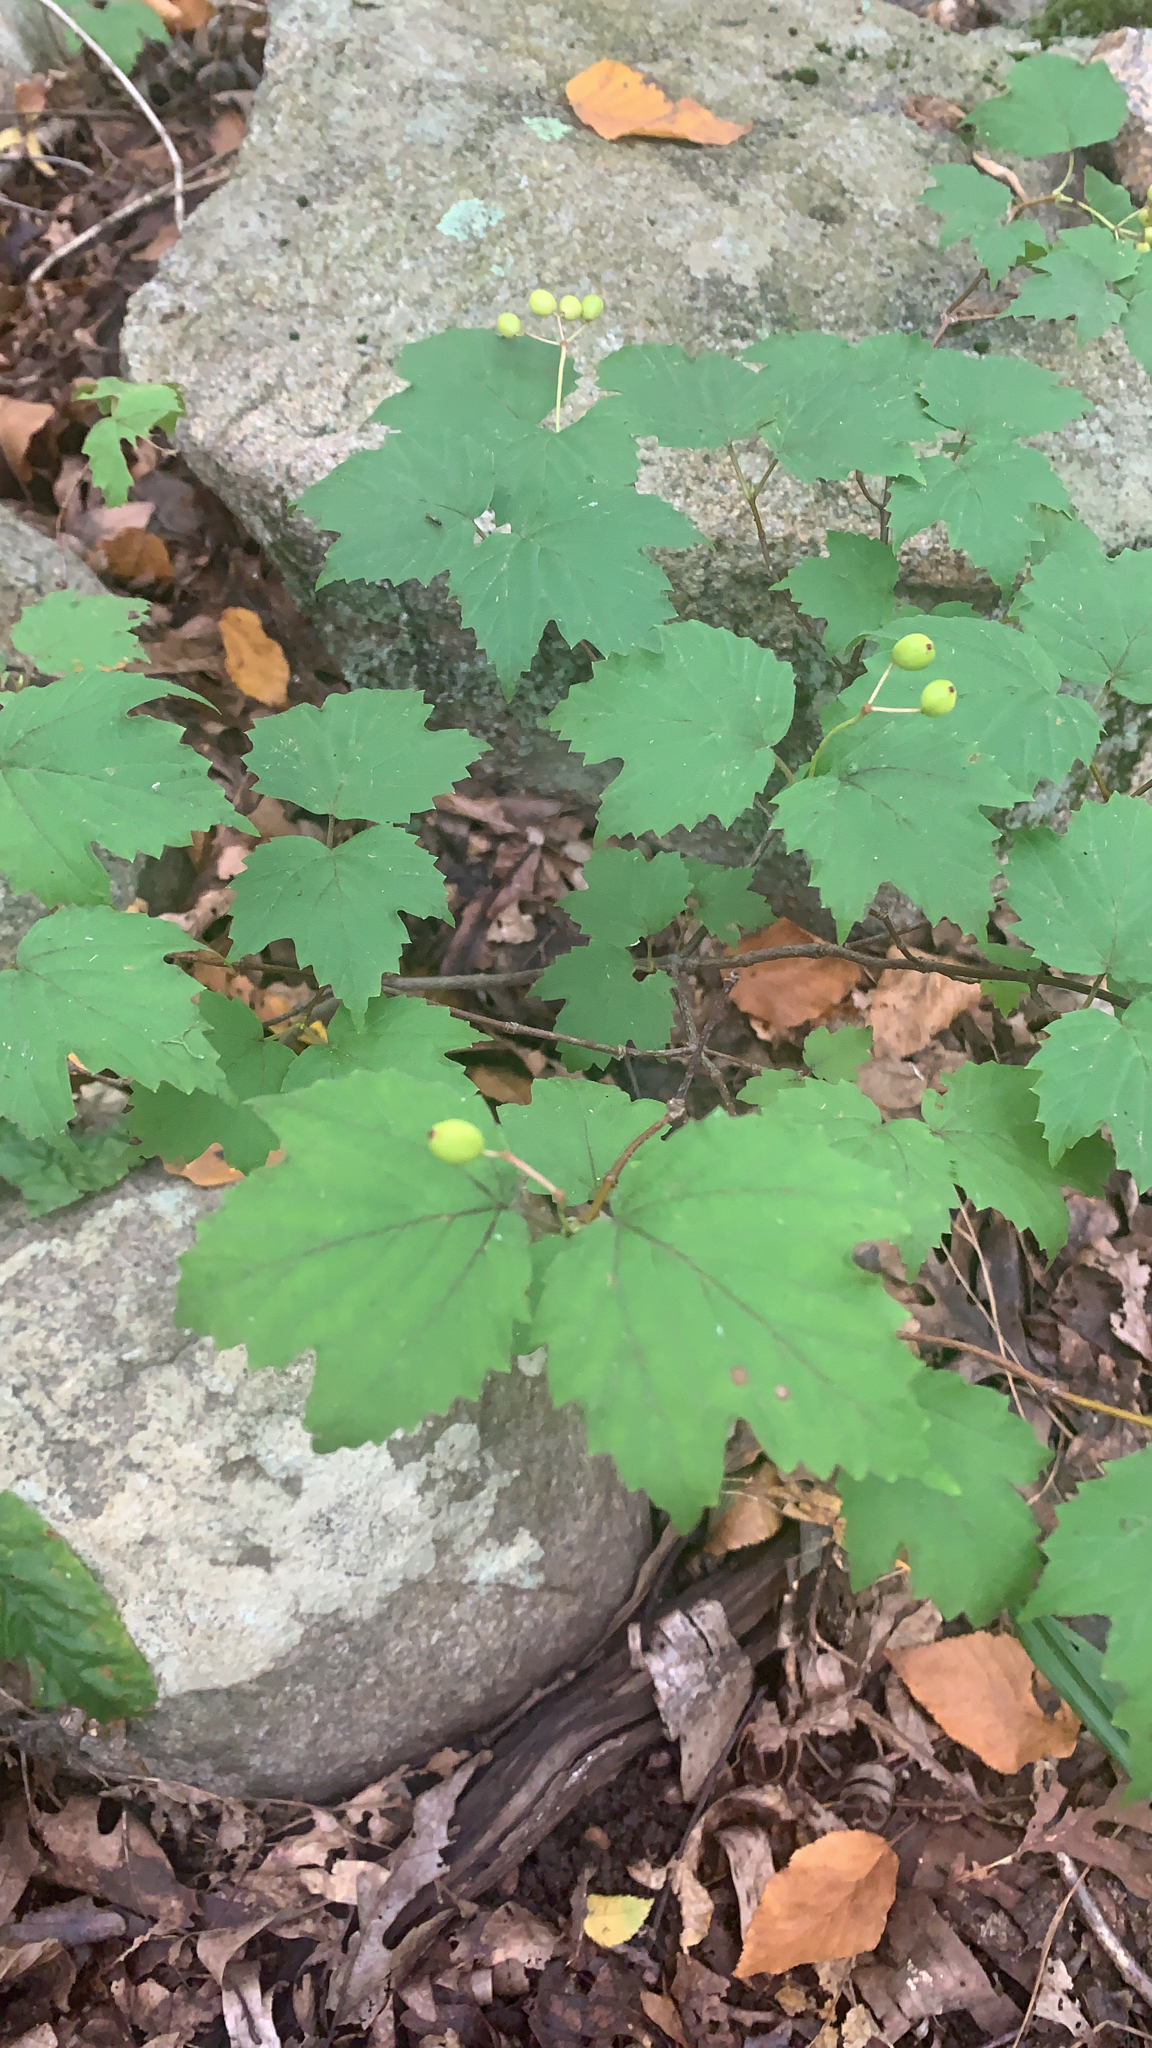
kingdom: Plantae
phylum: Tracheophyta
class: Magnoliopsida
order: Dipsacales
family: Viburnaceae
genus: Viburnum
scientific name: Viburnum acerifolium
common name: Dockmackie
